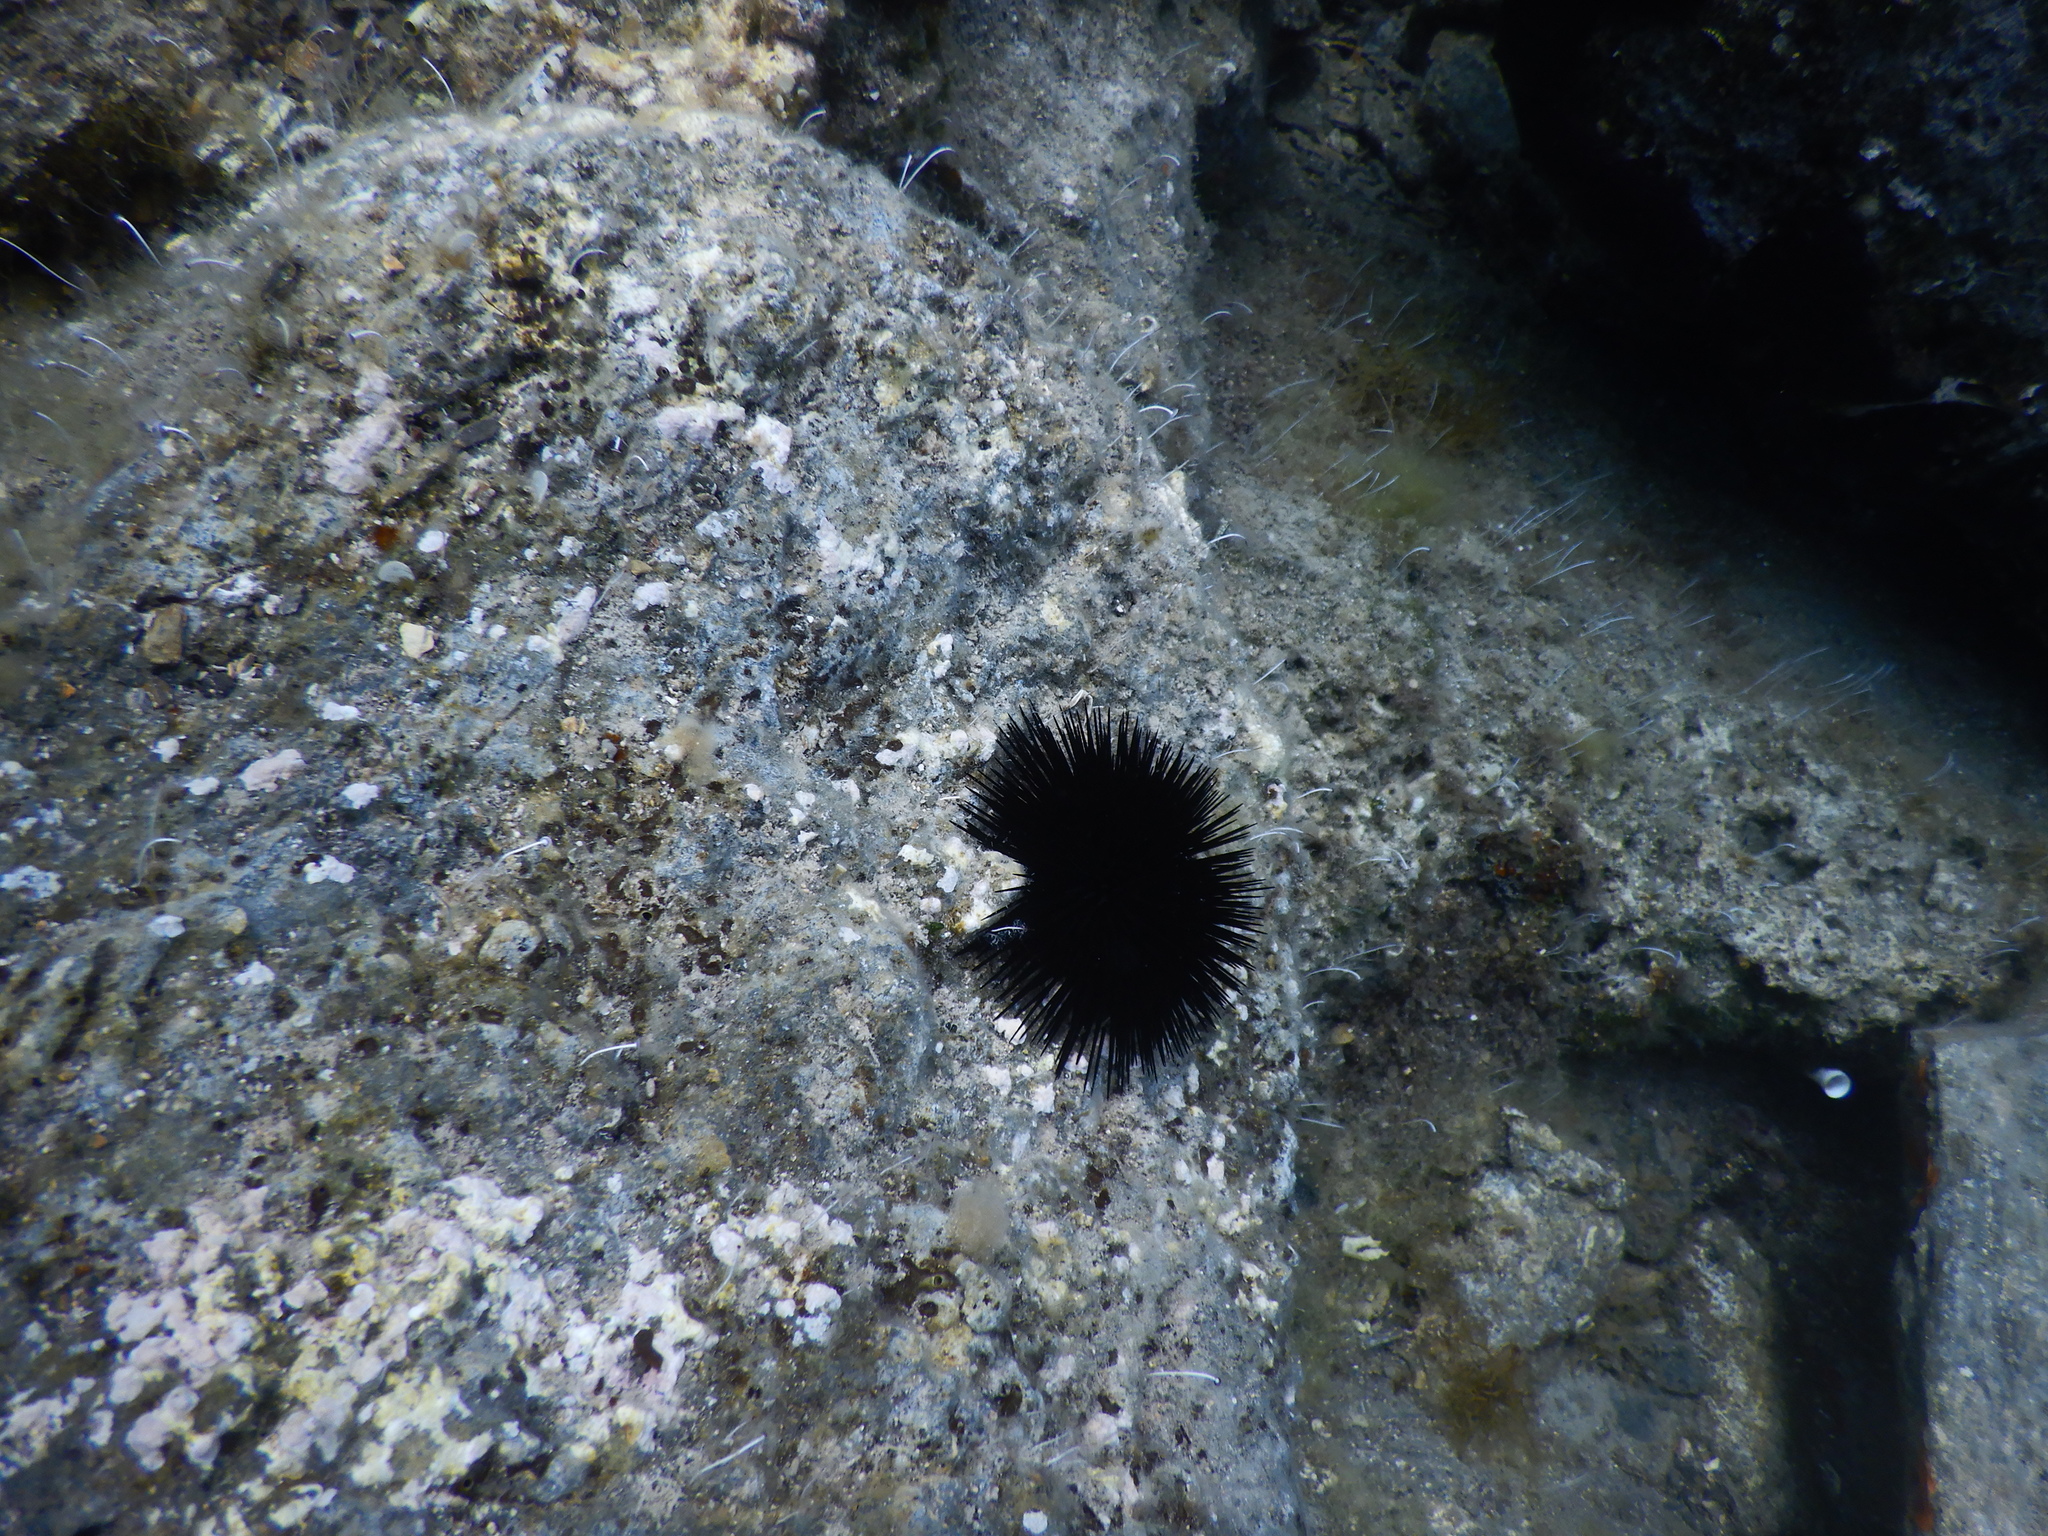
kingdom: Animalia
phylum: Echinodermata
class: Echinoidea
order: Arbacioida
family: Arbaciidae
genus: Arbacia
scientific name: Arbacia lixula
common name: Black sea urchin
